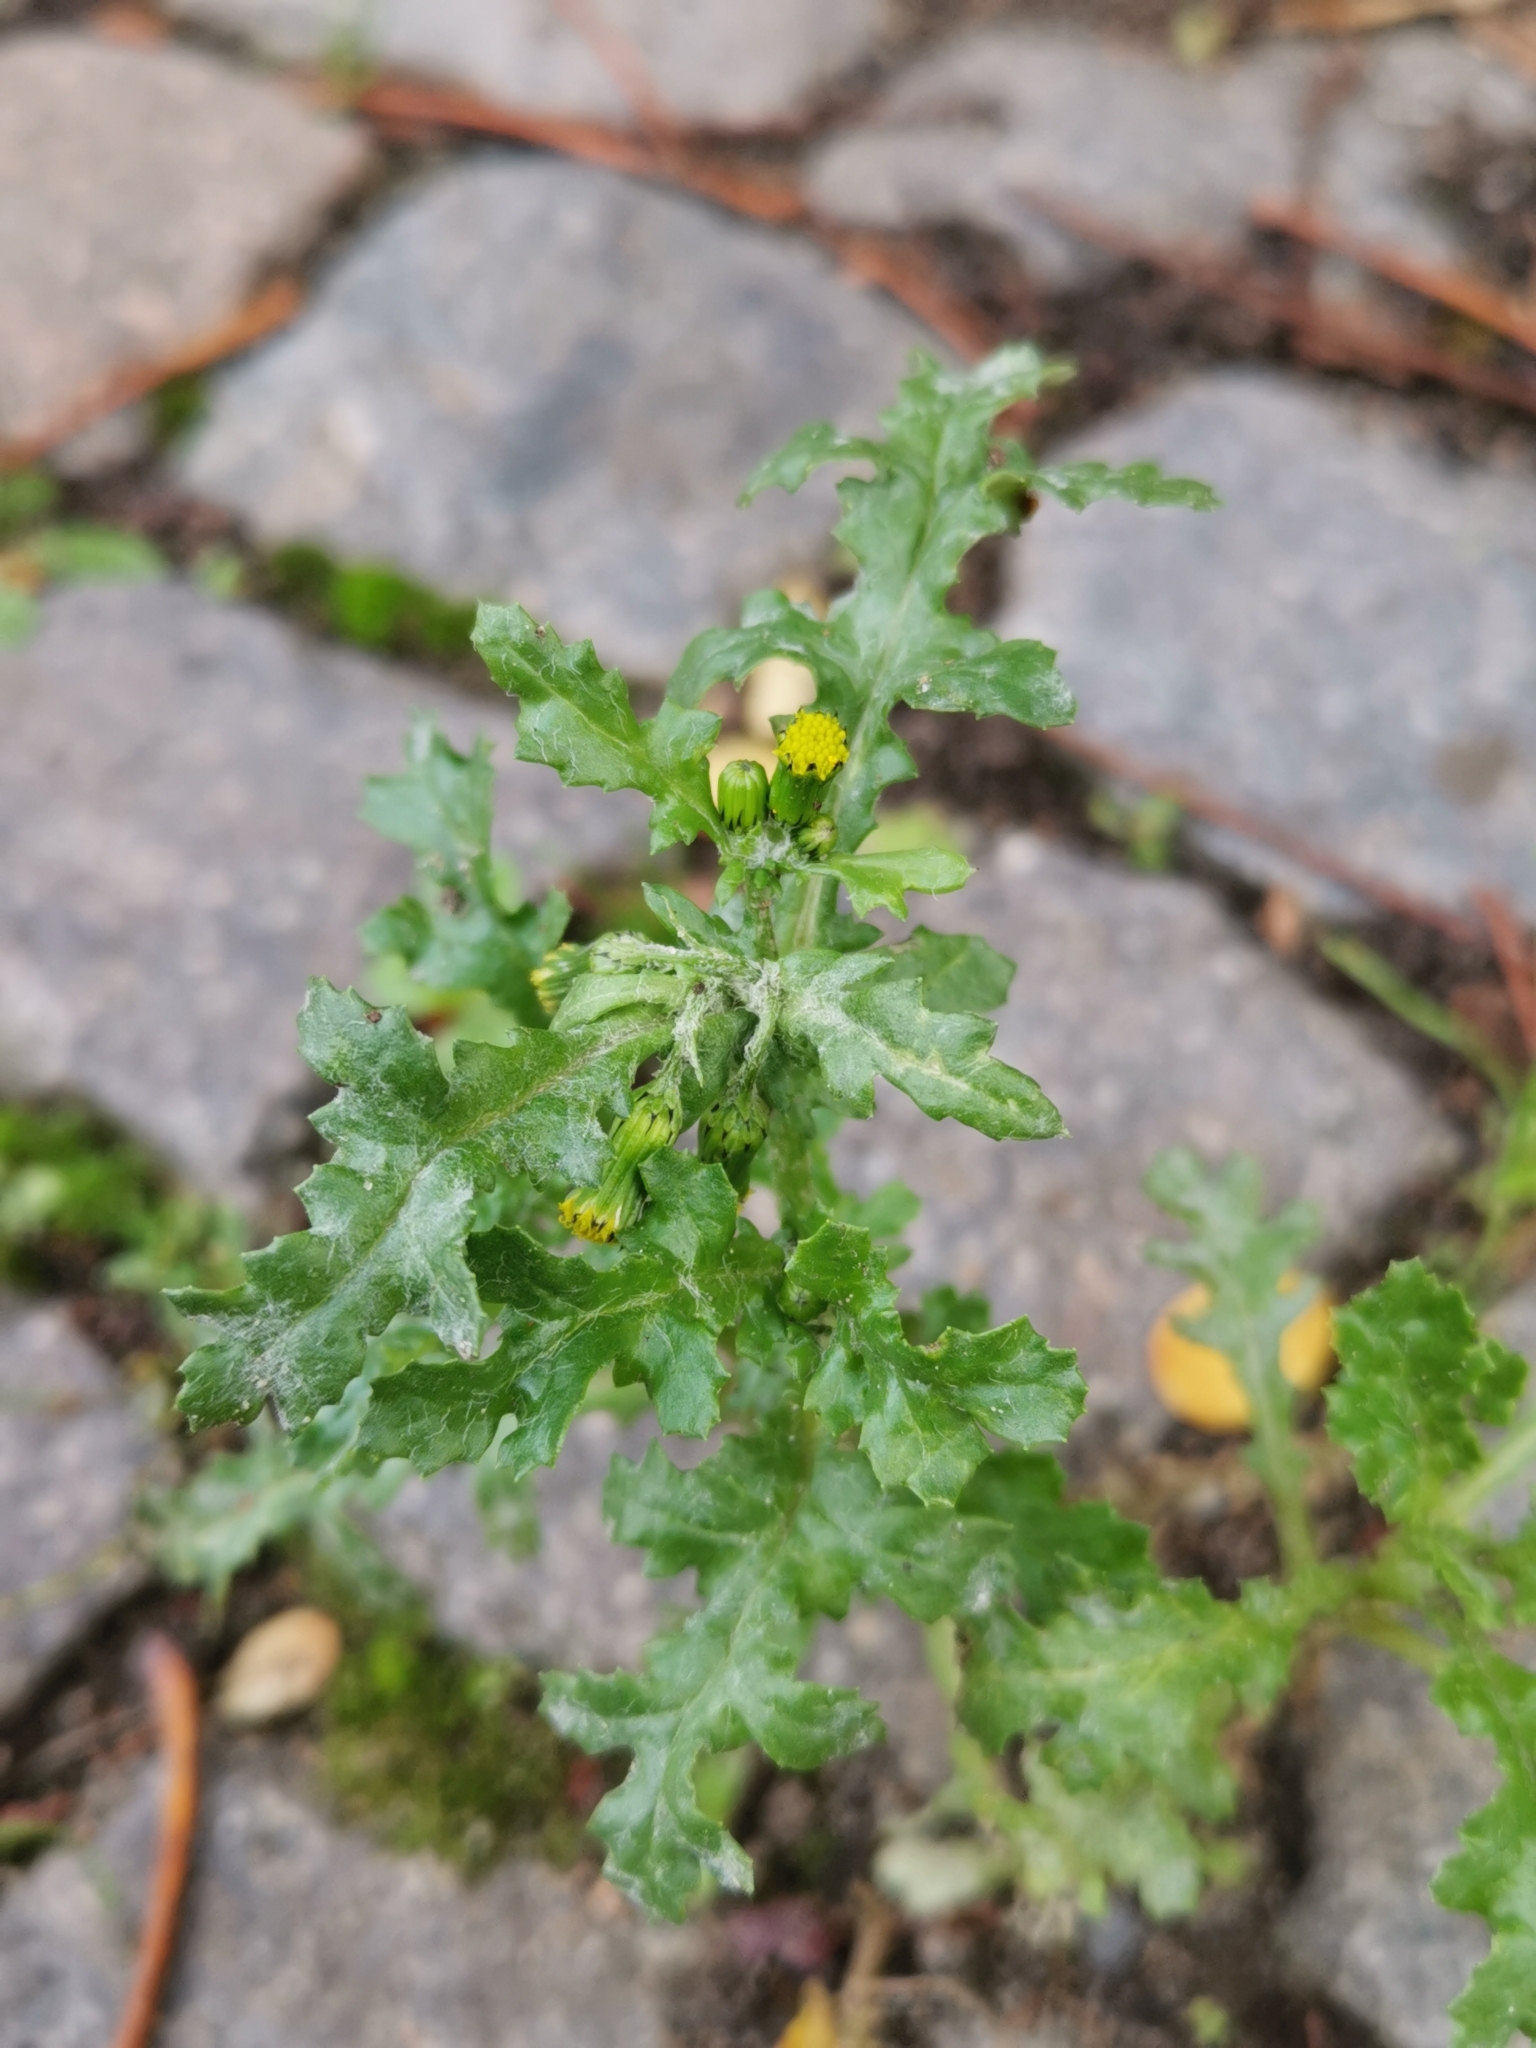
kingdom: Plantae
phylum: Tracheophyta
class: Magnoliopsida
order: Asterales
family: Asteraceae
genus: Senecio
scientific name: Senecio vulgaris
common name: Old-man-in-the-spring
